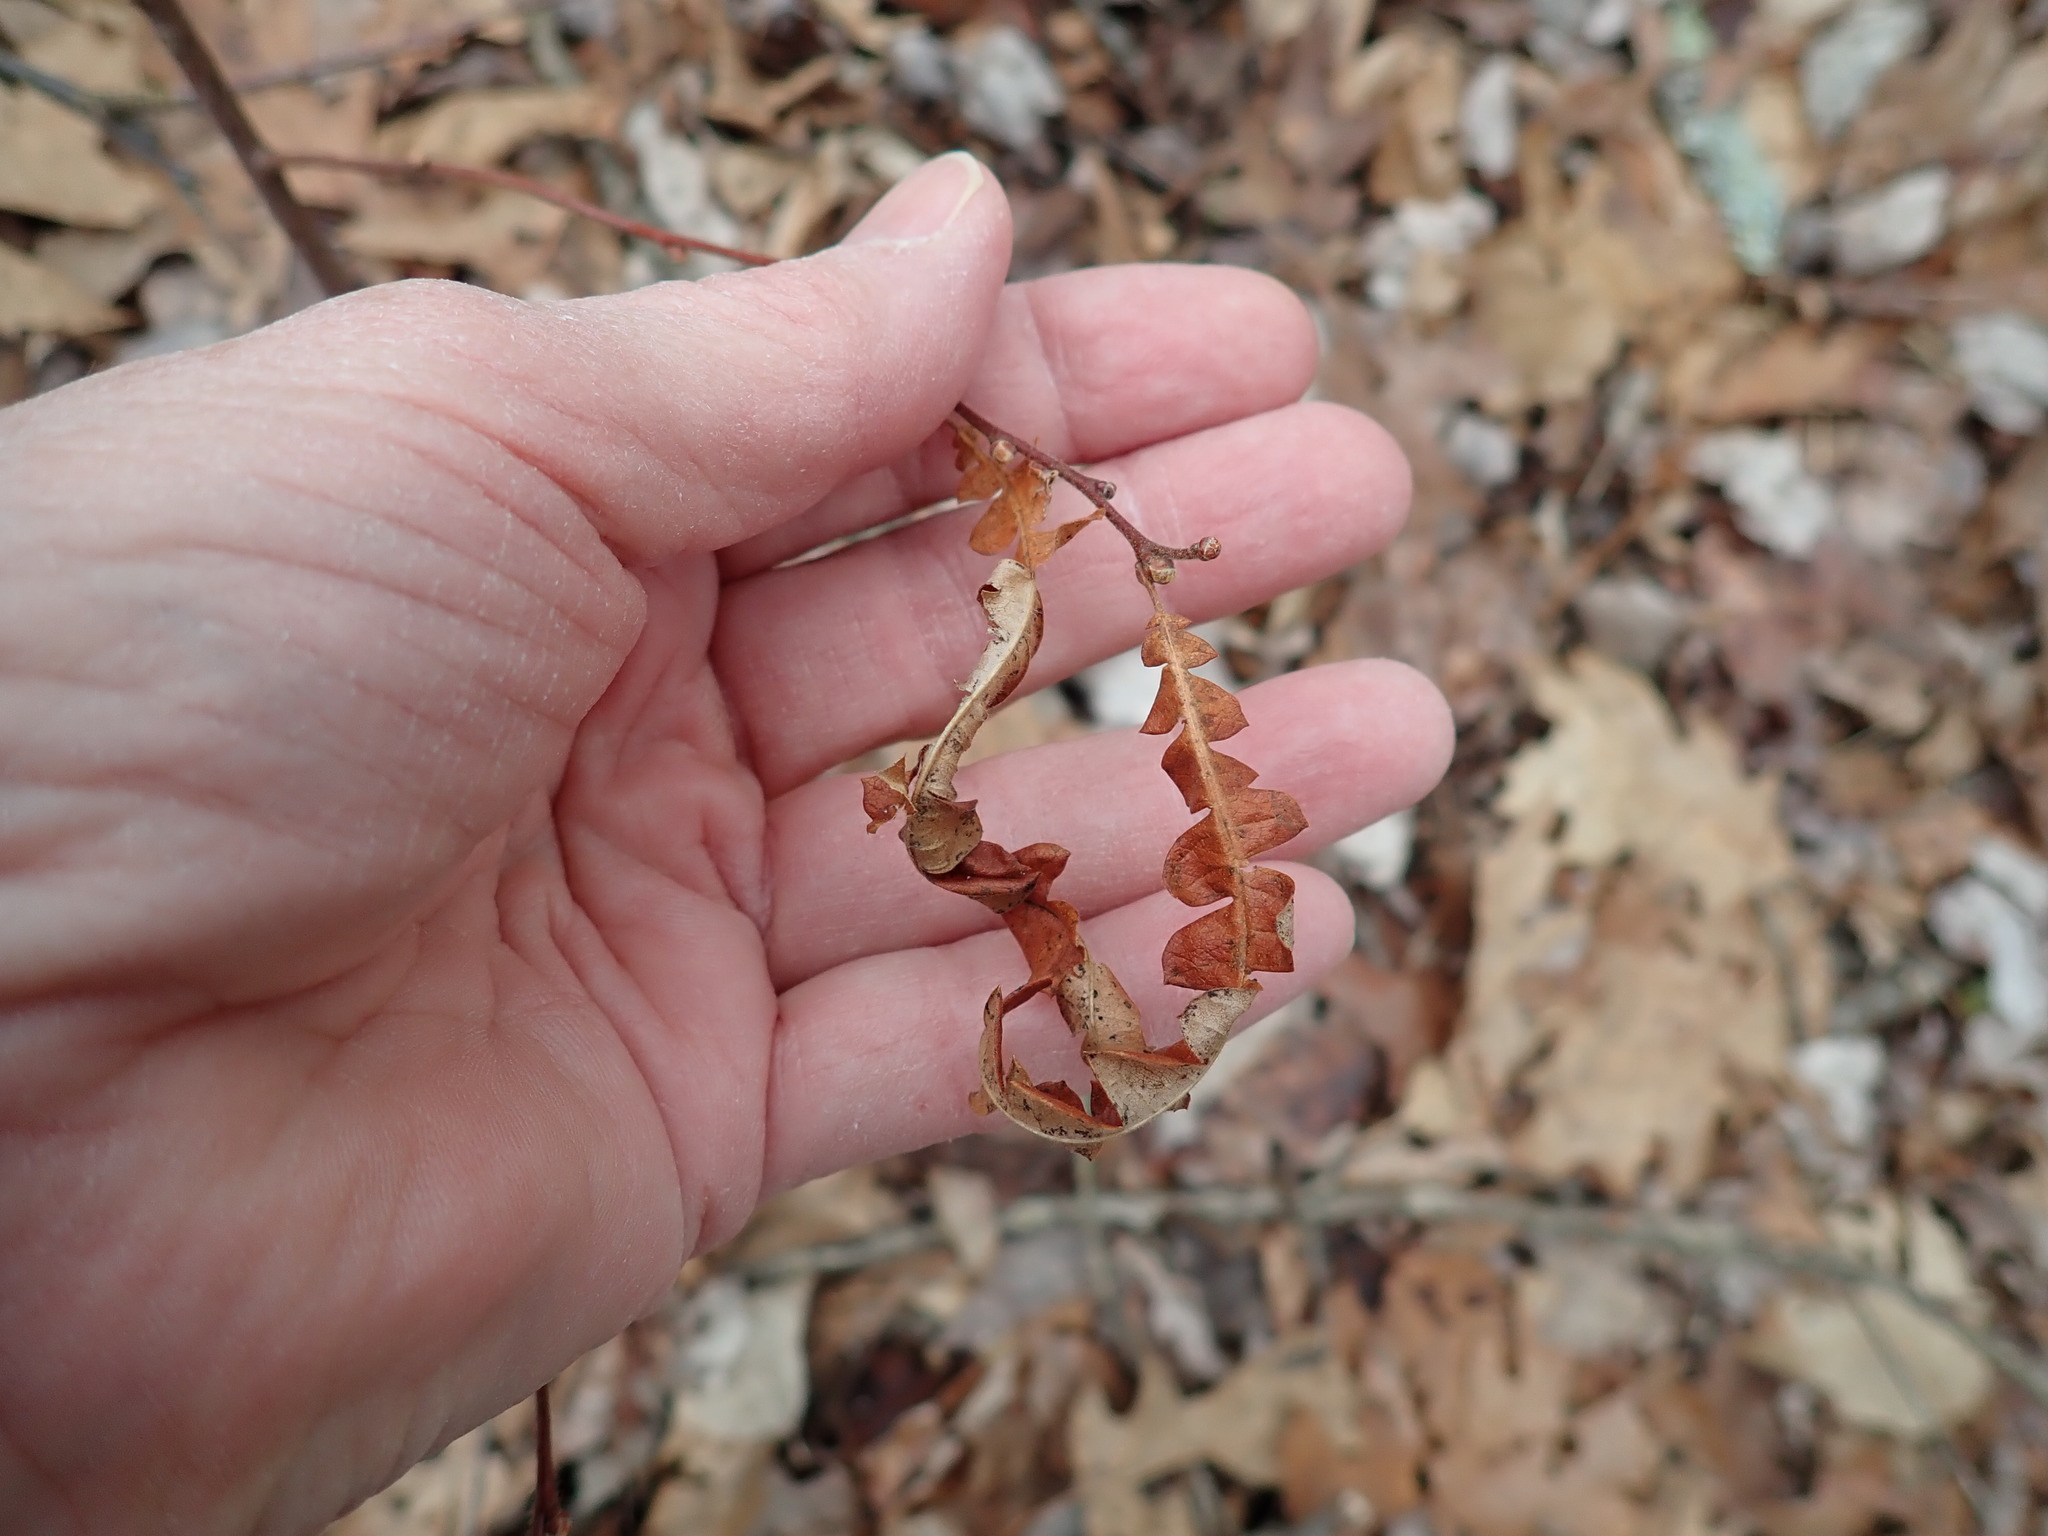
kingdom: Plantae
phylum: Tracheophyta
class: Magnoliopsida
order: Fagales
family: Myricaceae
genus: Comptonia
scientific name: Comptonia peregrina
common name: Sweet-fern
